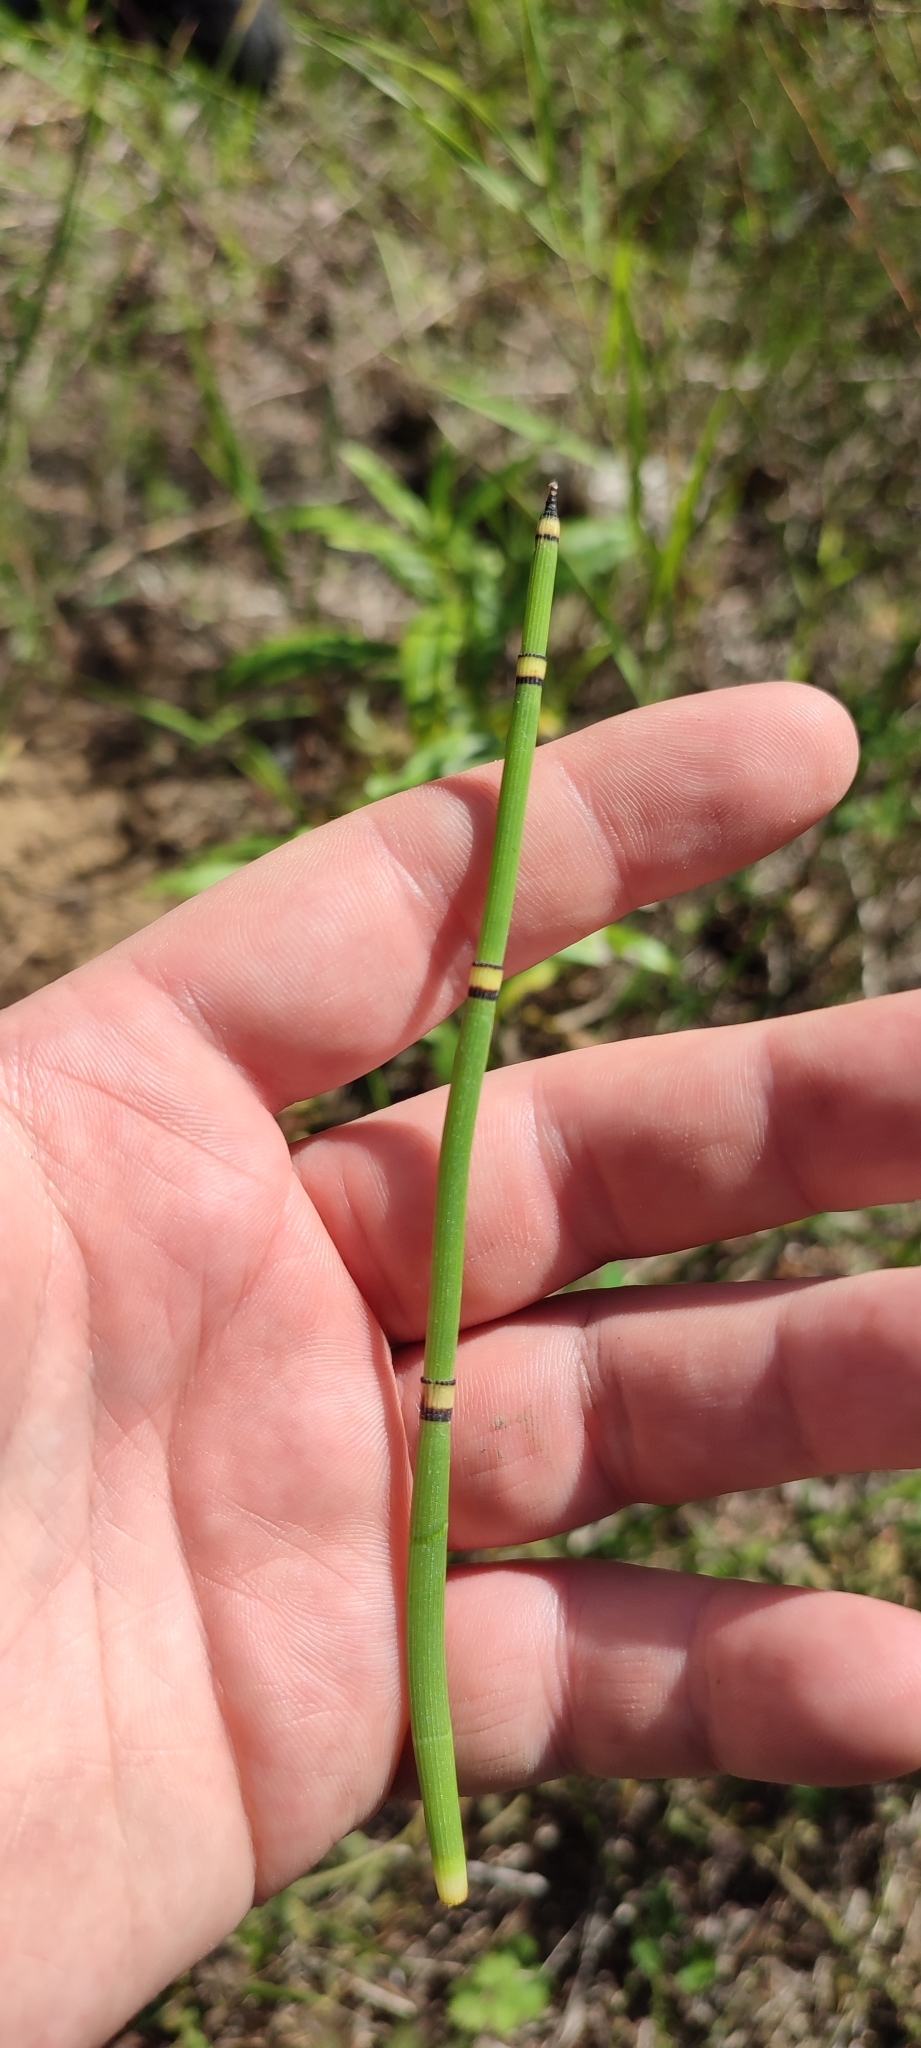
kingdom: Plantae
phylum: Tracheophyta
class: Polypodiopsida
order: Equisetales
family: Equisetaceae
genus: Equisetum
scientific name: Equisetum hyemale
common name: Rough horsetail
